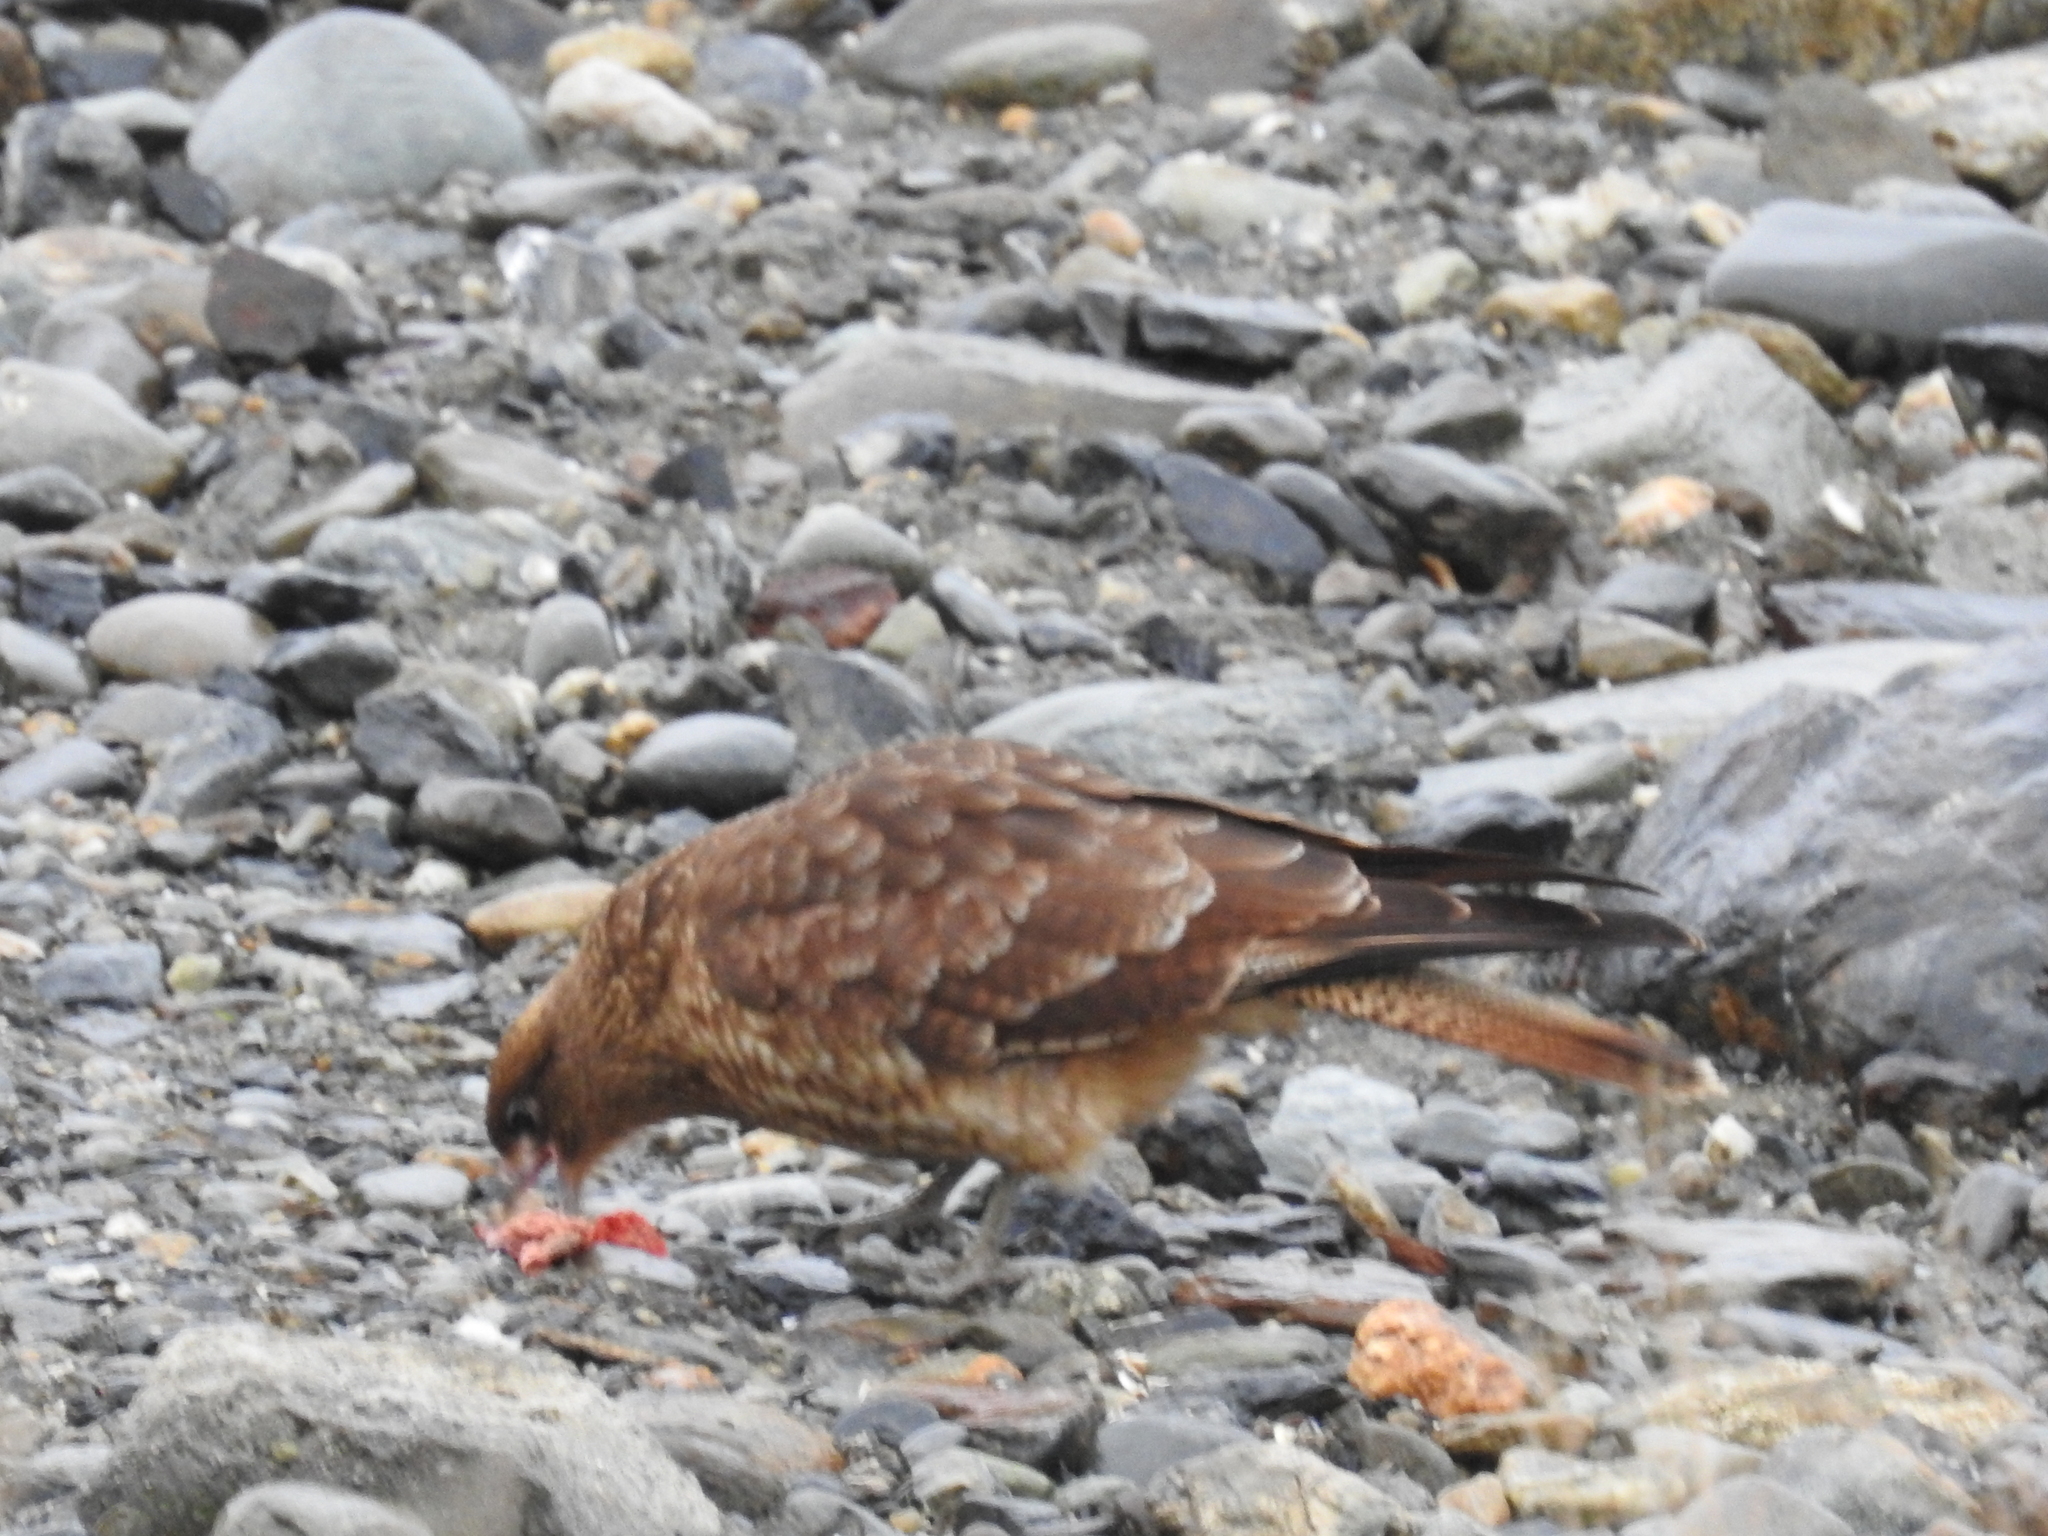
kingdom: Animalia
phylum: Chordata
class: Aves
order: Falconiformes
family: Falconidae
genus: Daptrius
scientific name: Daptrius
